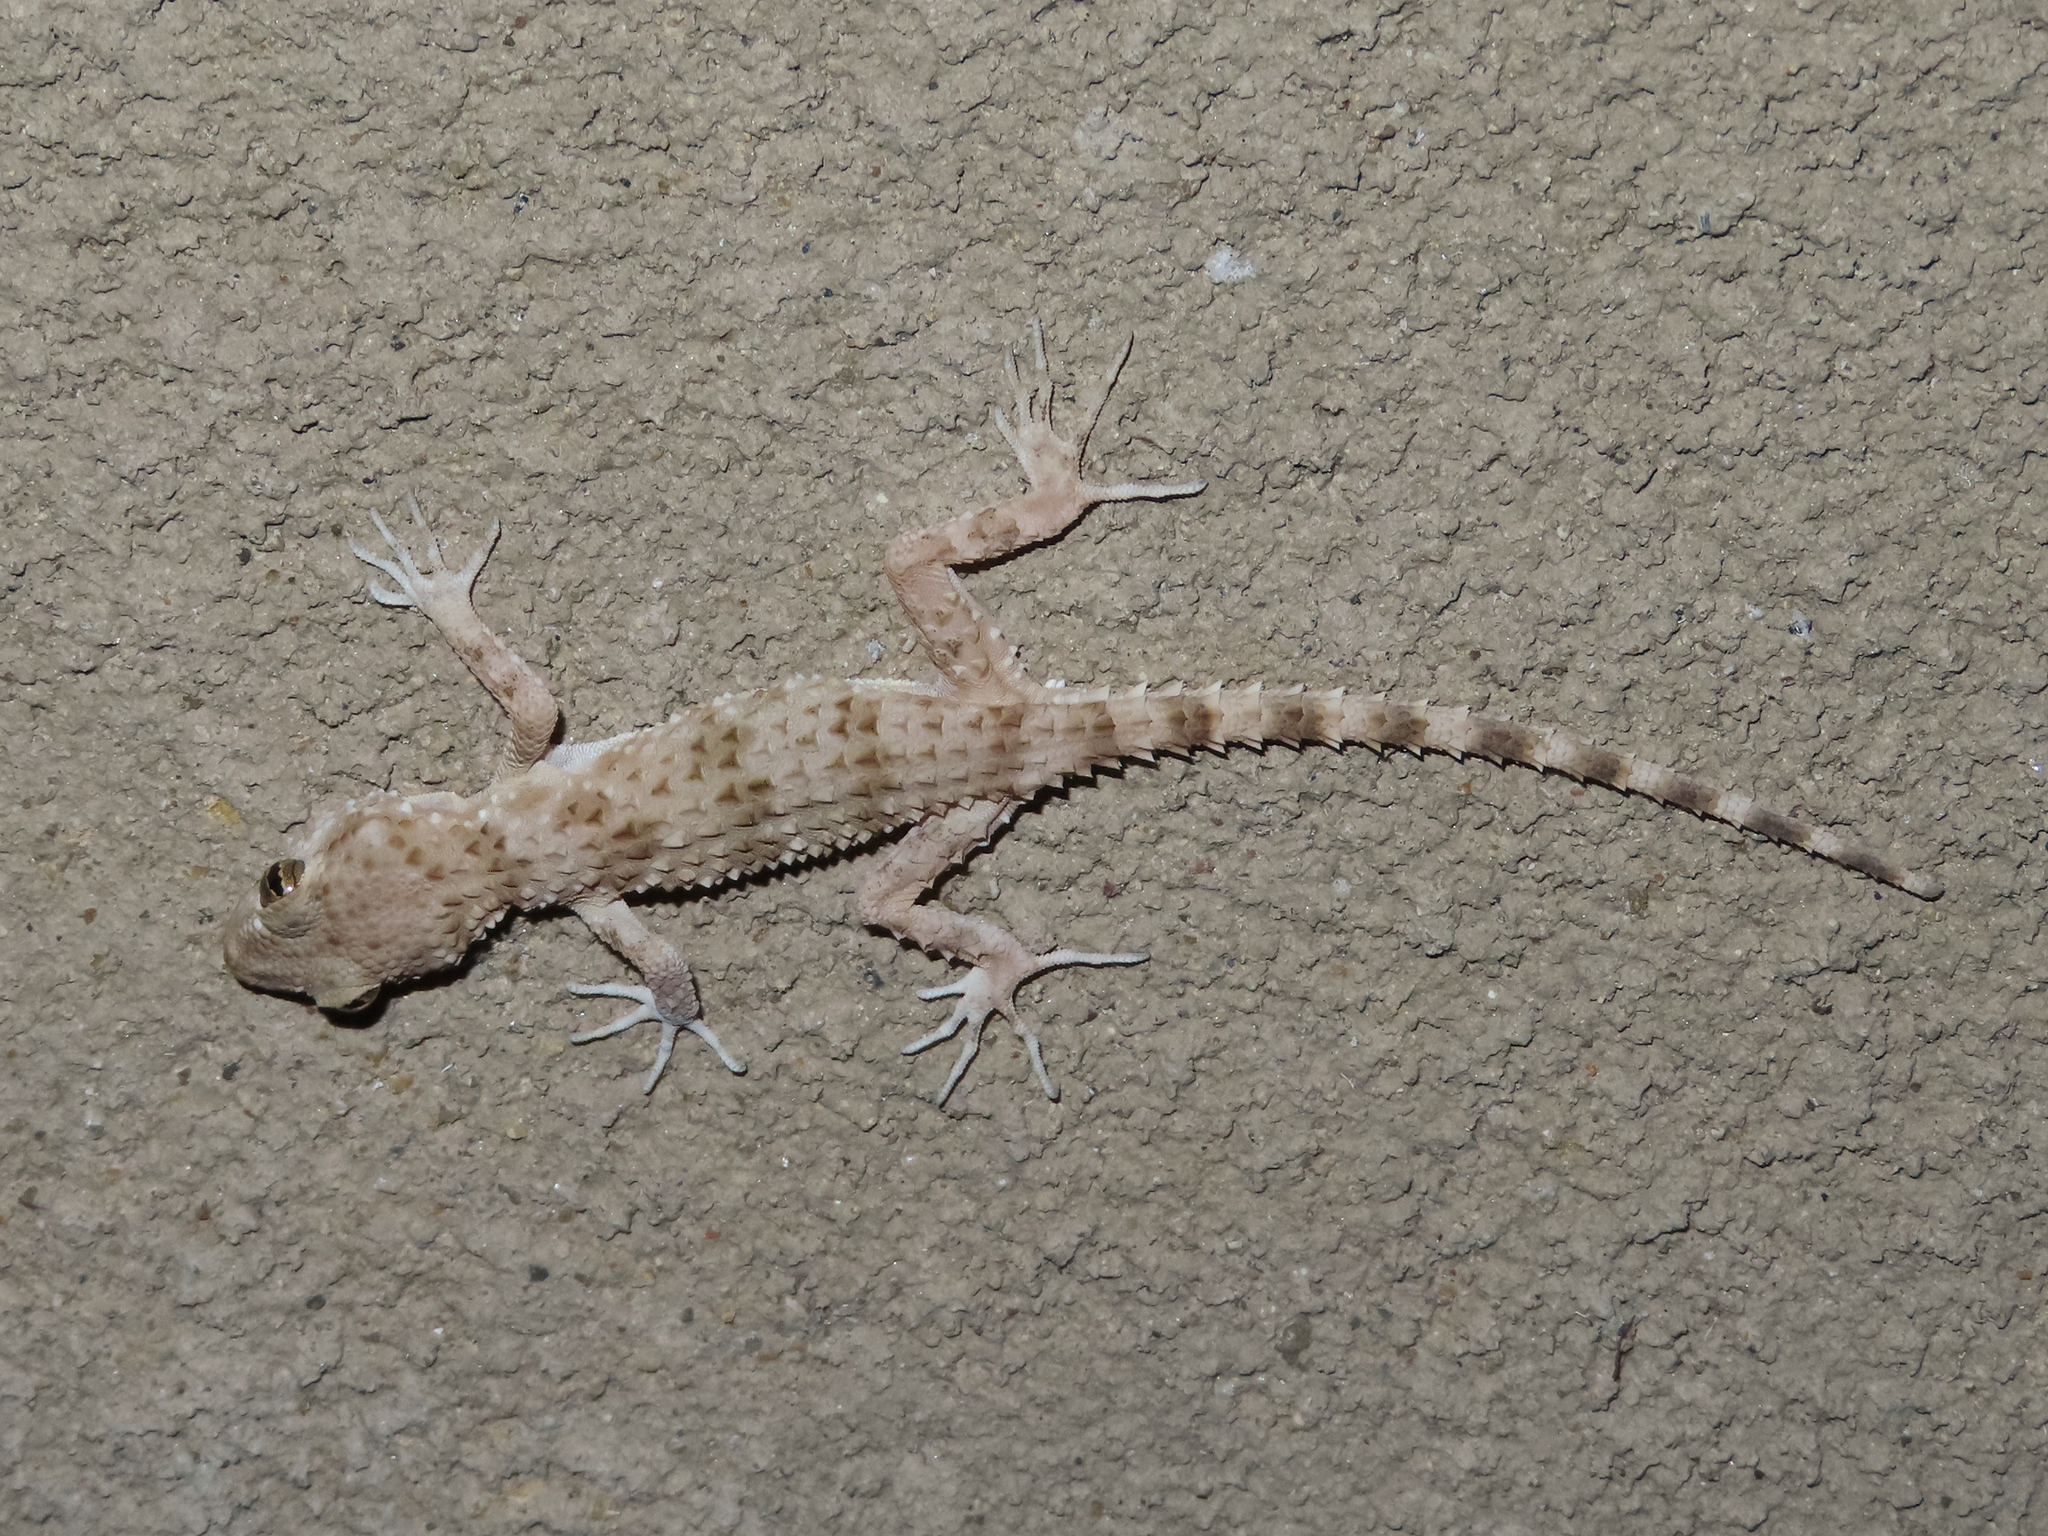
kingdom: Animalia
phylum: Chordata
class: Squamata
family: Gekkonidae
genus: Tenuidactylus
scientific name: Tenuidactylus caspius
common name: Caspian bent-toed gecko
